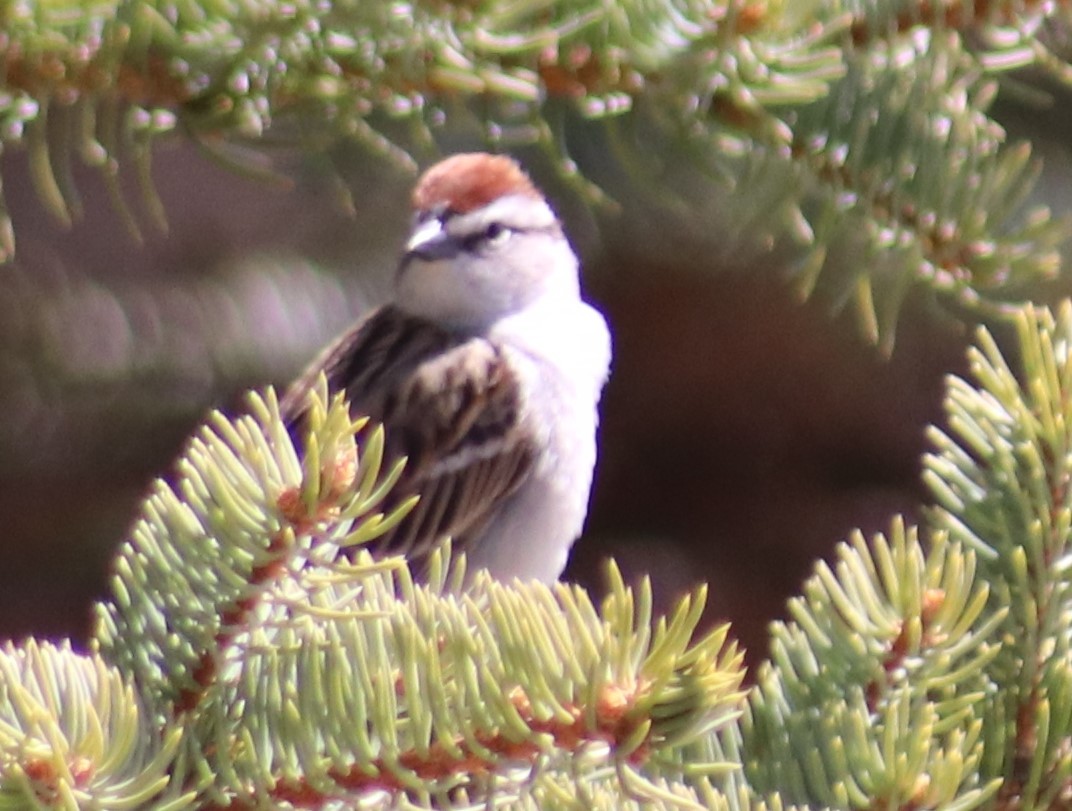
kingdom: Animalia
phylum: Chordata
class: Aves
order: Passeriformes
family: Passerellidae
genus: Spizella
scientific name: Spizella passerina
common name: Chipping sparrow
